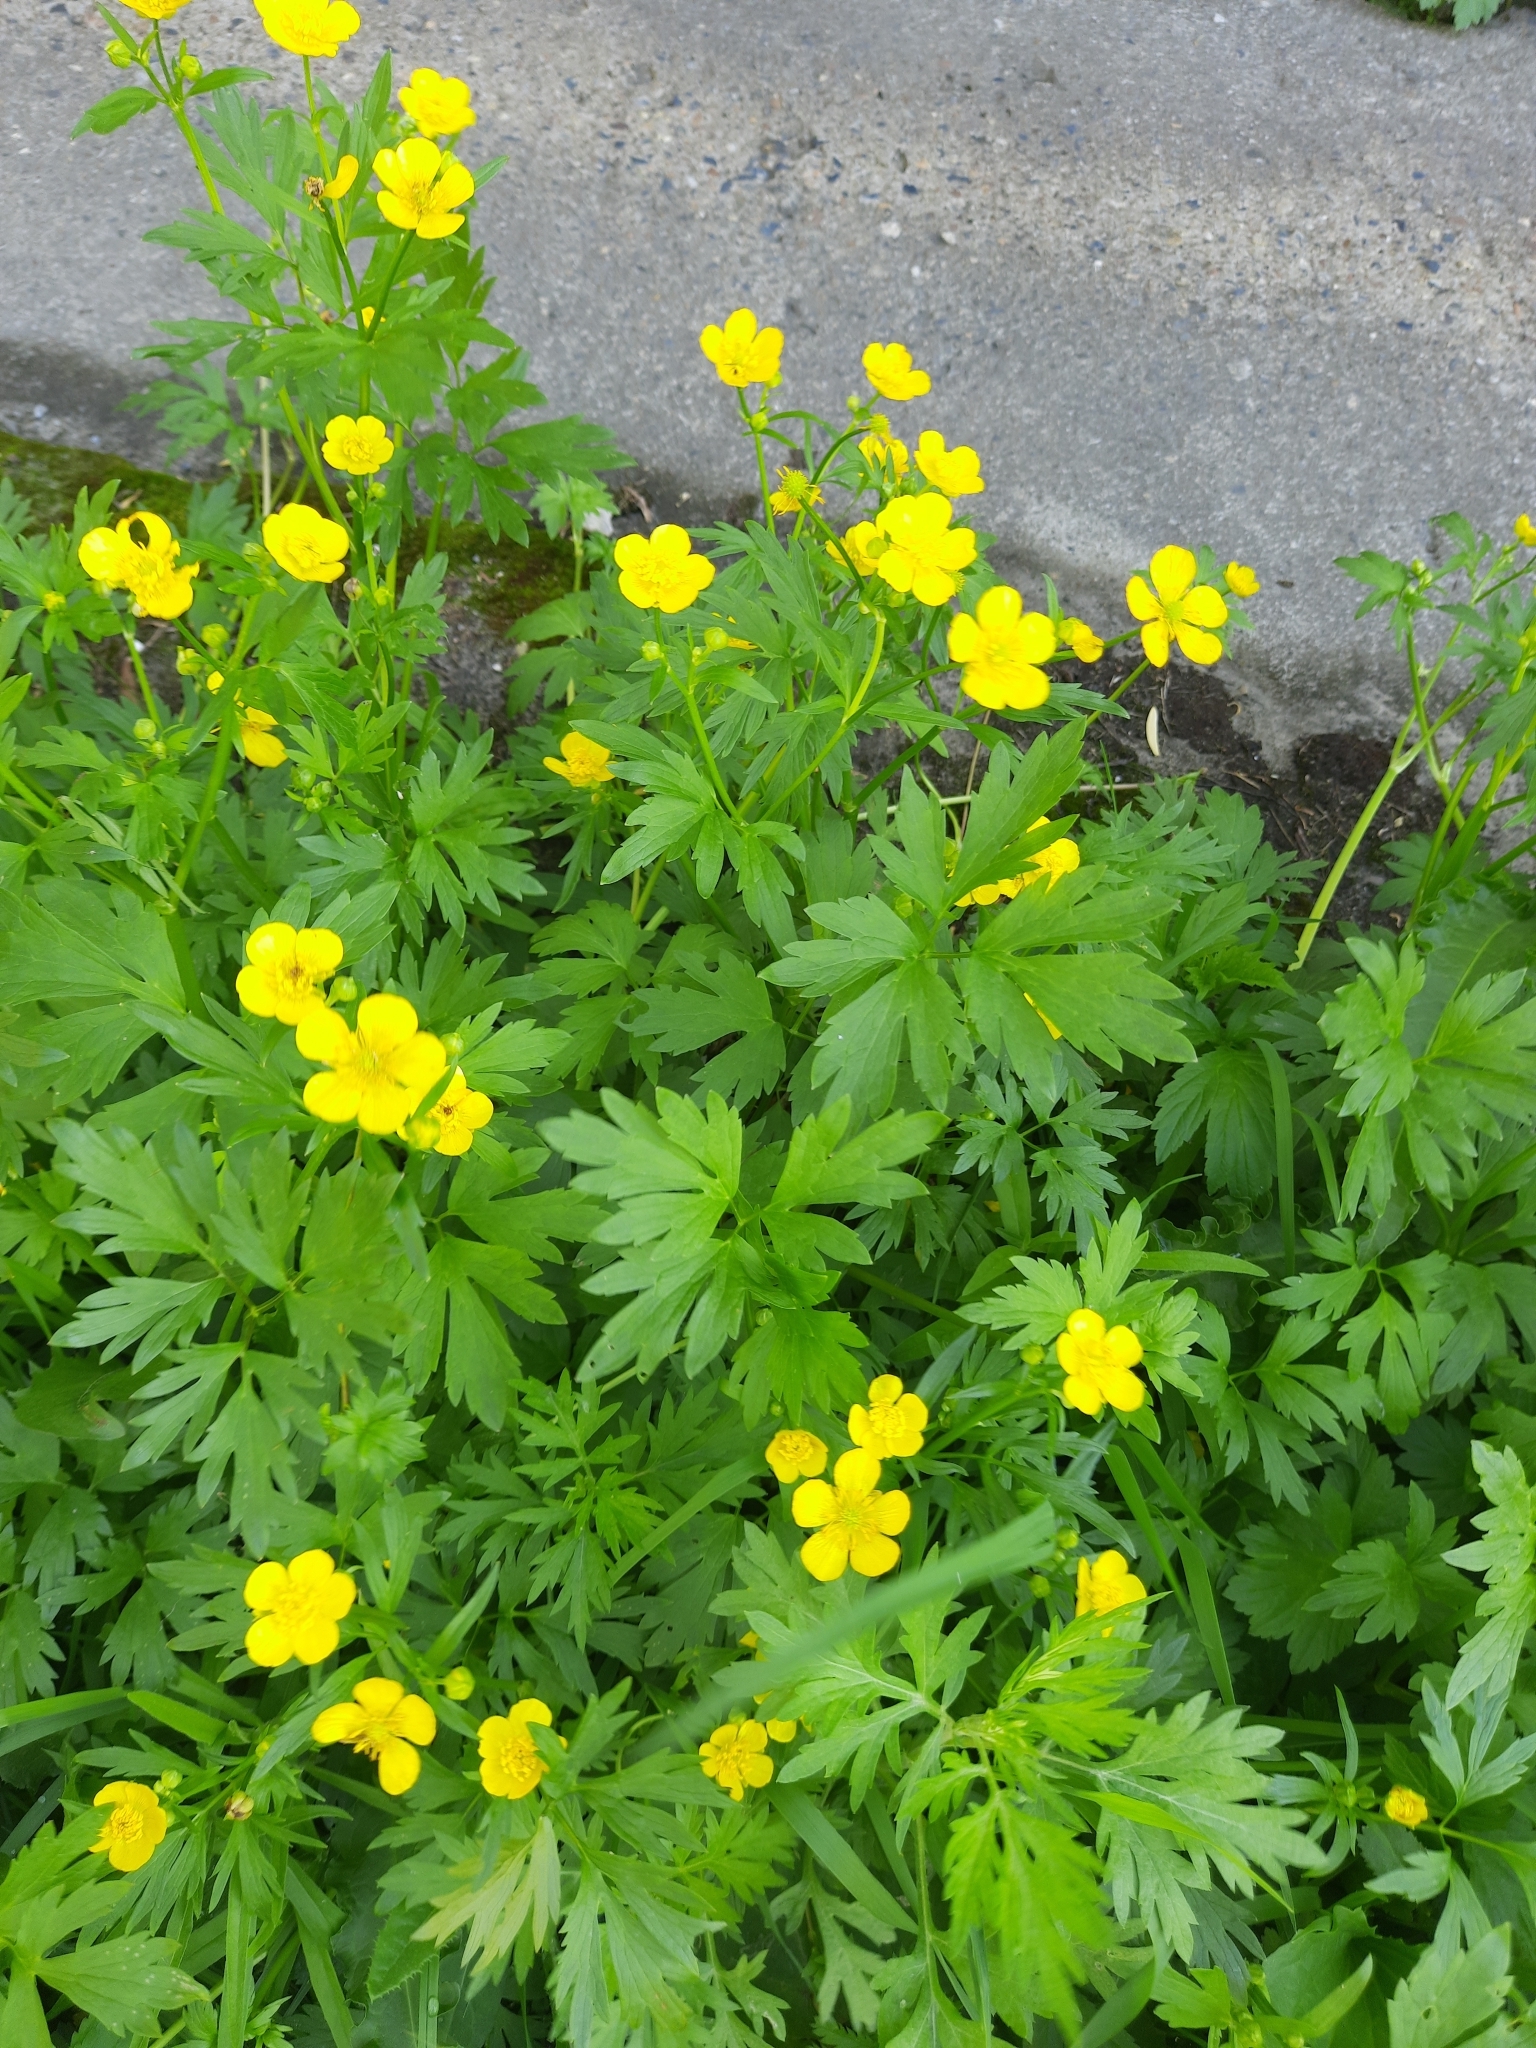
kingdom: Plantae
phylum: Tracheophyta
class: Magnoliopsida
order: Ranunculales
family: Ranunculaceae
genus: Ranunculus
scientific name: Ranunculus repens
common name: Creeping buttercup
